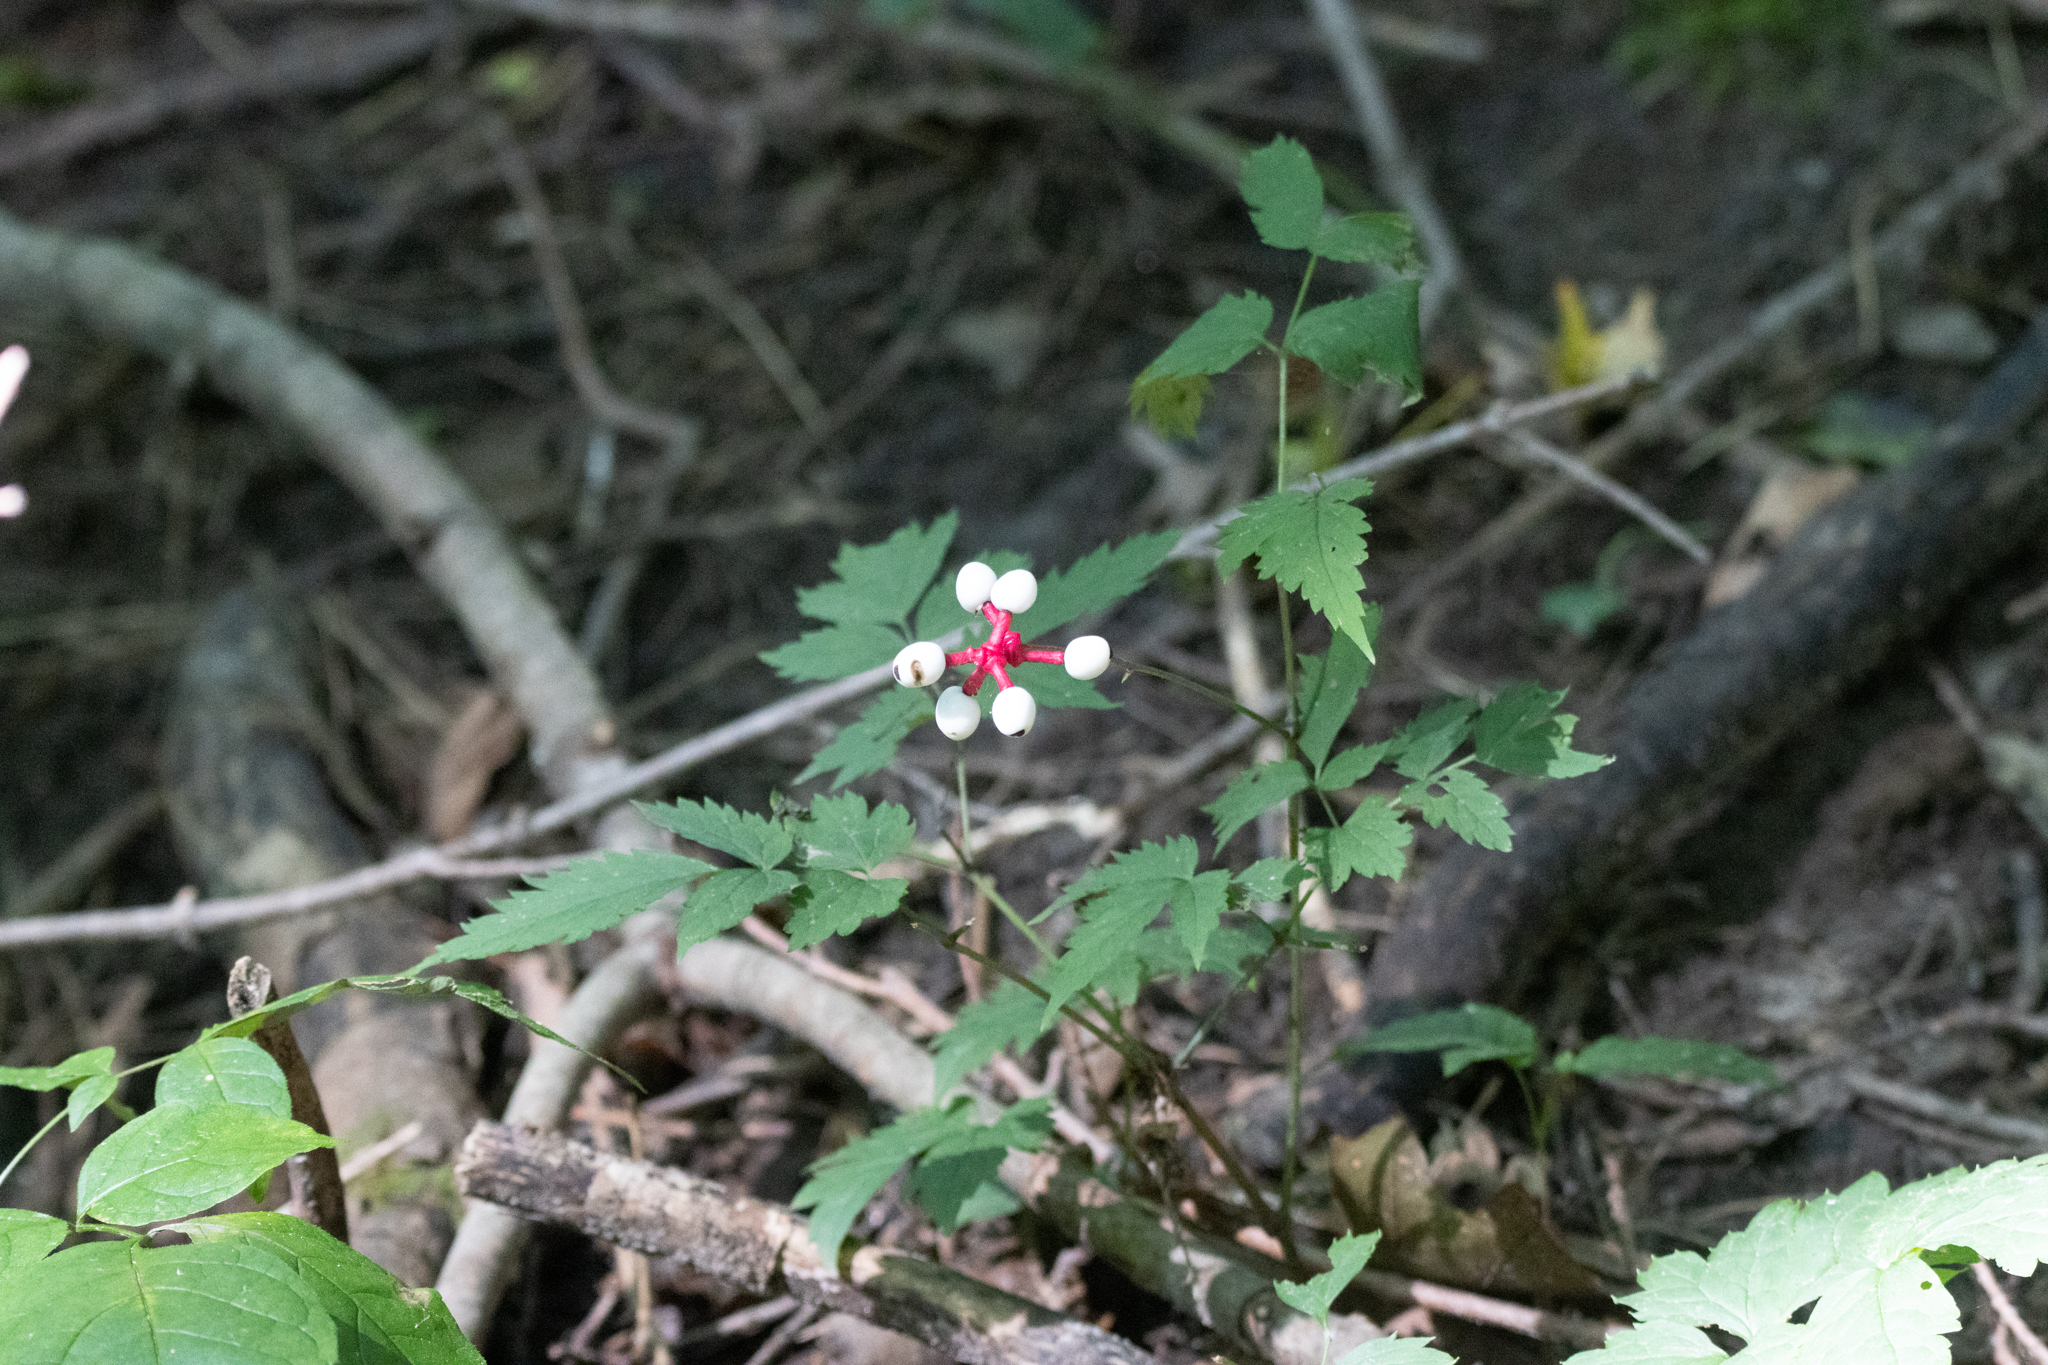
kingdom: Plantae
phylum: Tracheophyta
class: Magnoliopsida
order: Ranunculales
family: Ranunculaceae
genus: Actaea
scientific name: Actaea pachypoda
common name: Doll's-eyes
